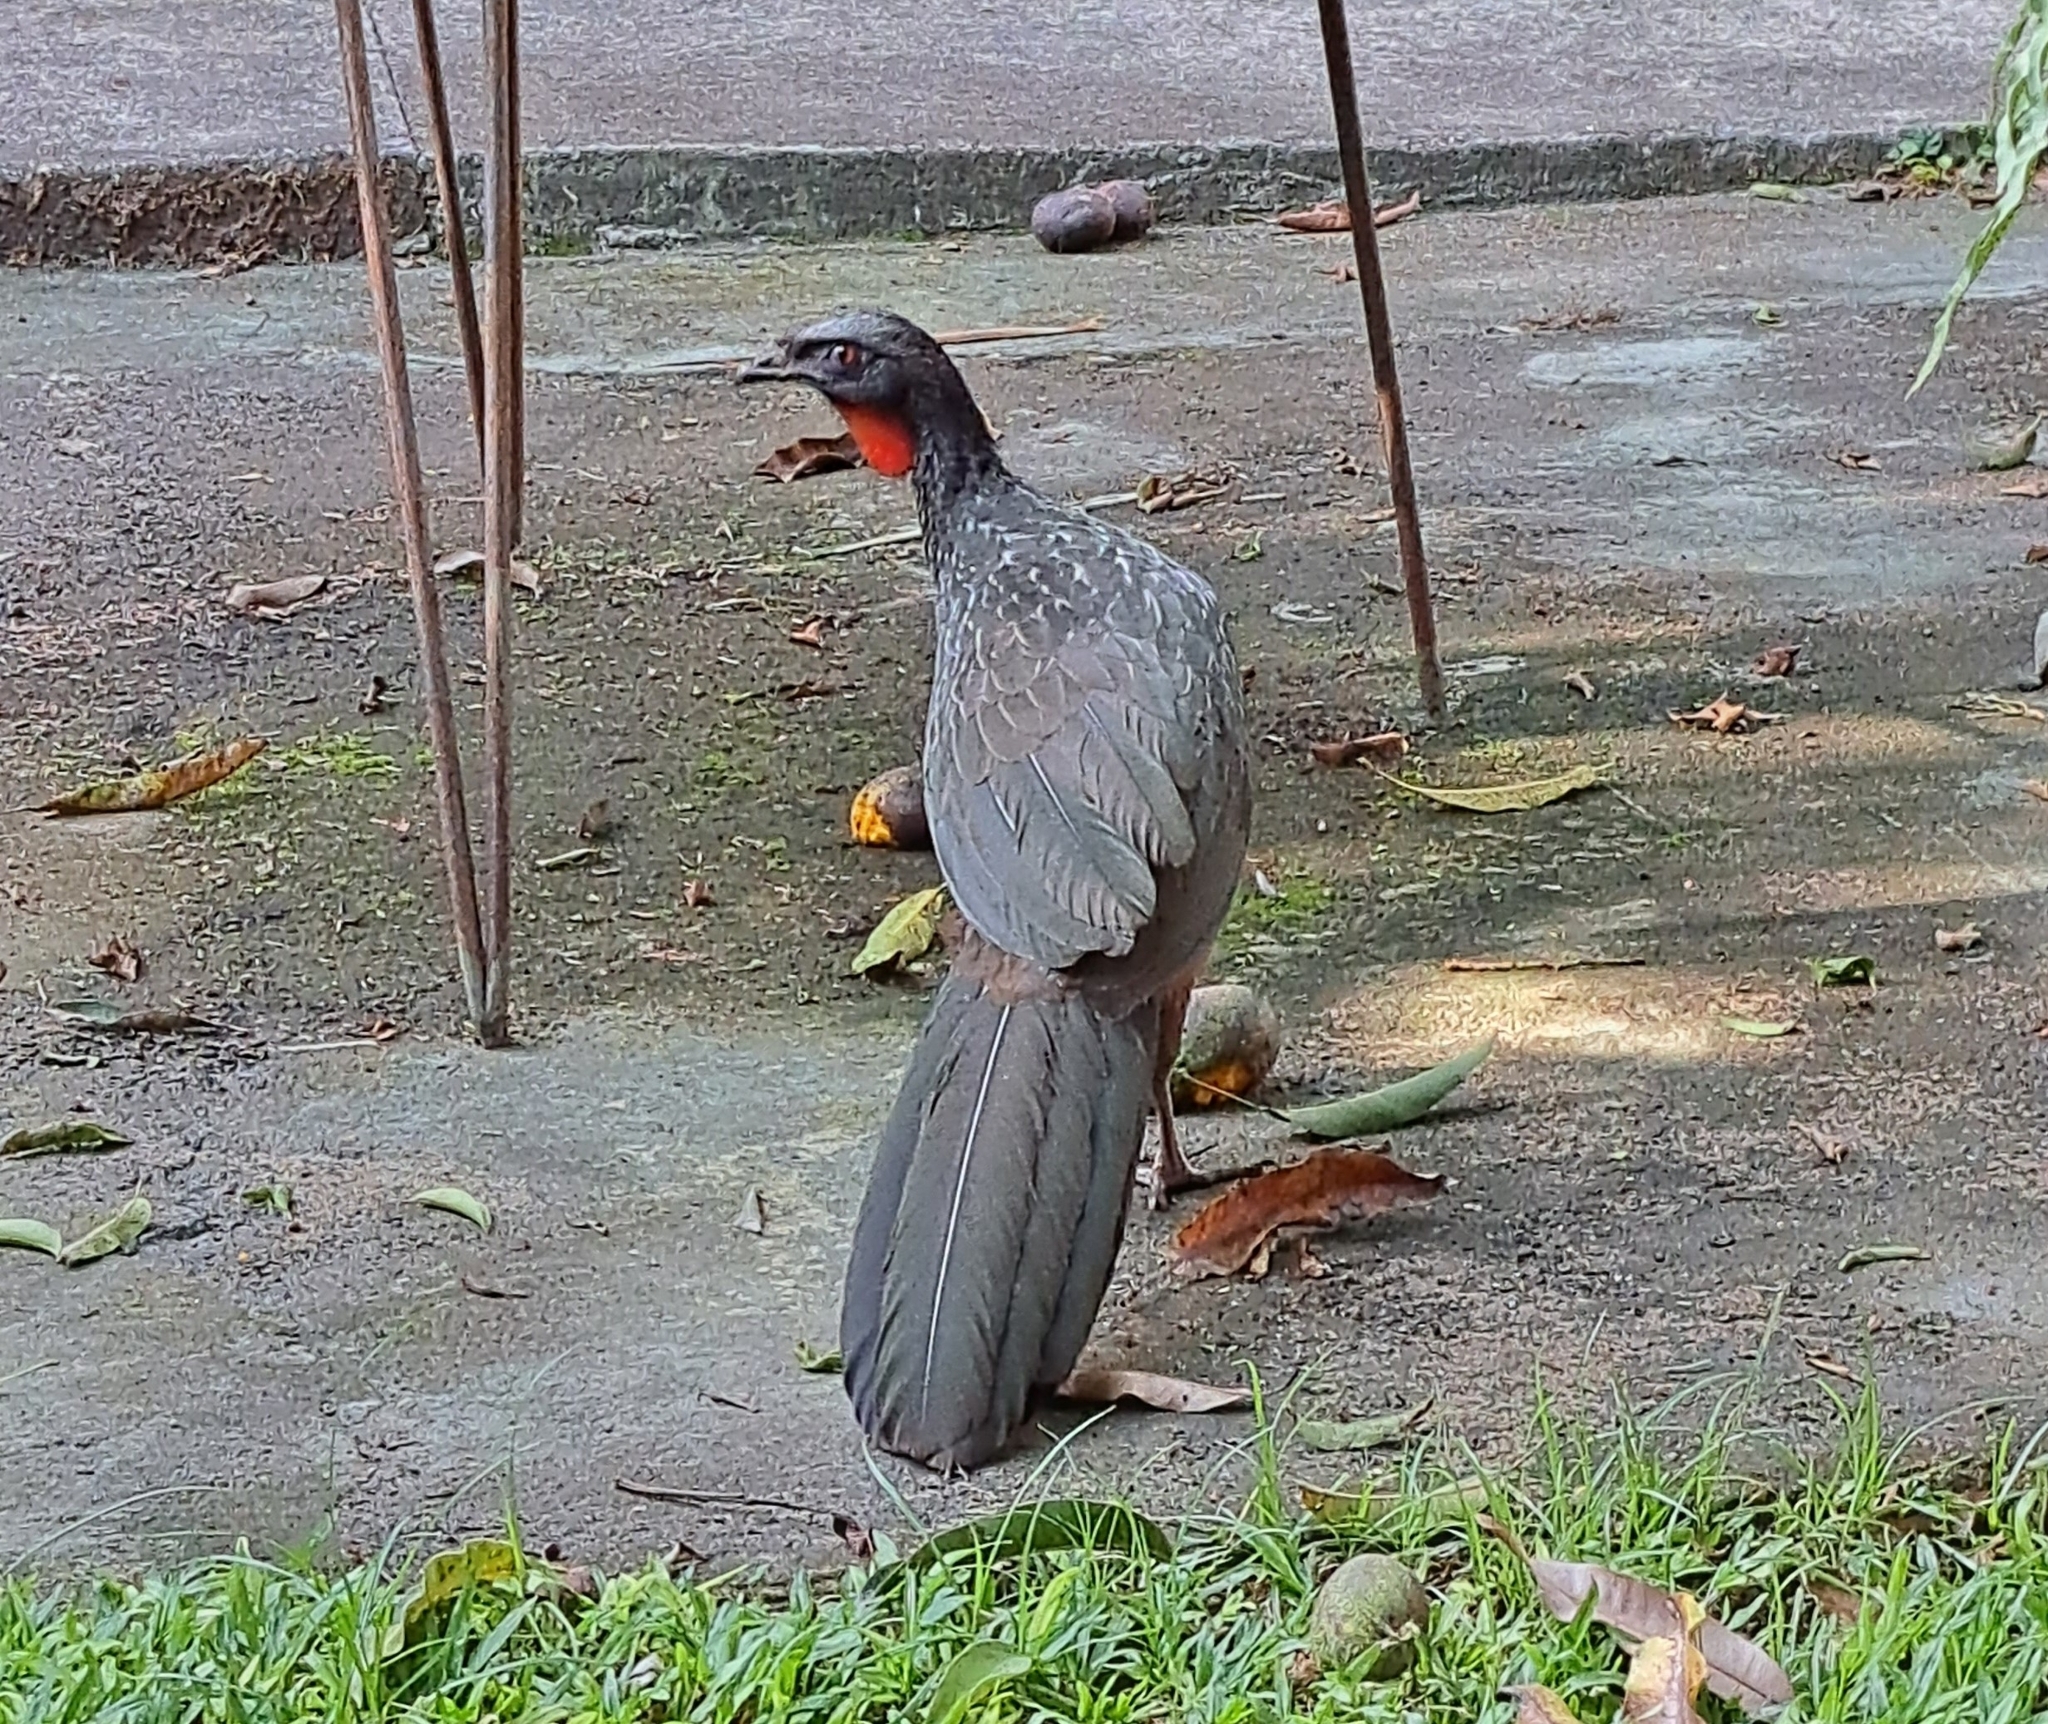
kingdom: Animalia
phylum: Chordata
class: Aves
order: Galliformes
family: Cracidae
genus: Penelope
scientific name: Penelope obscura
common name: Dusky-legged guan
